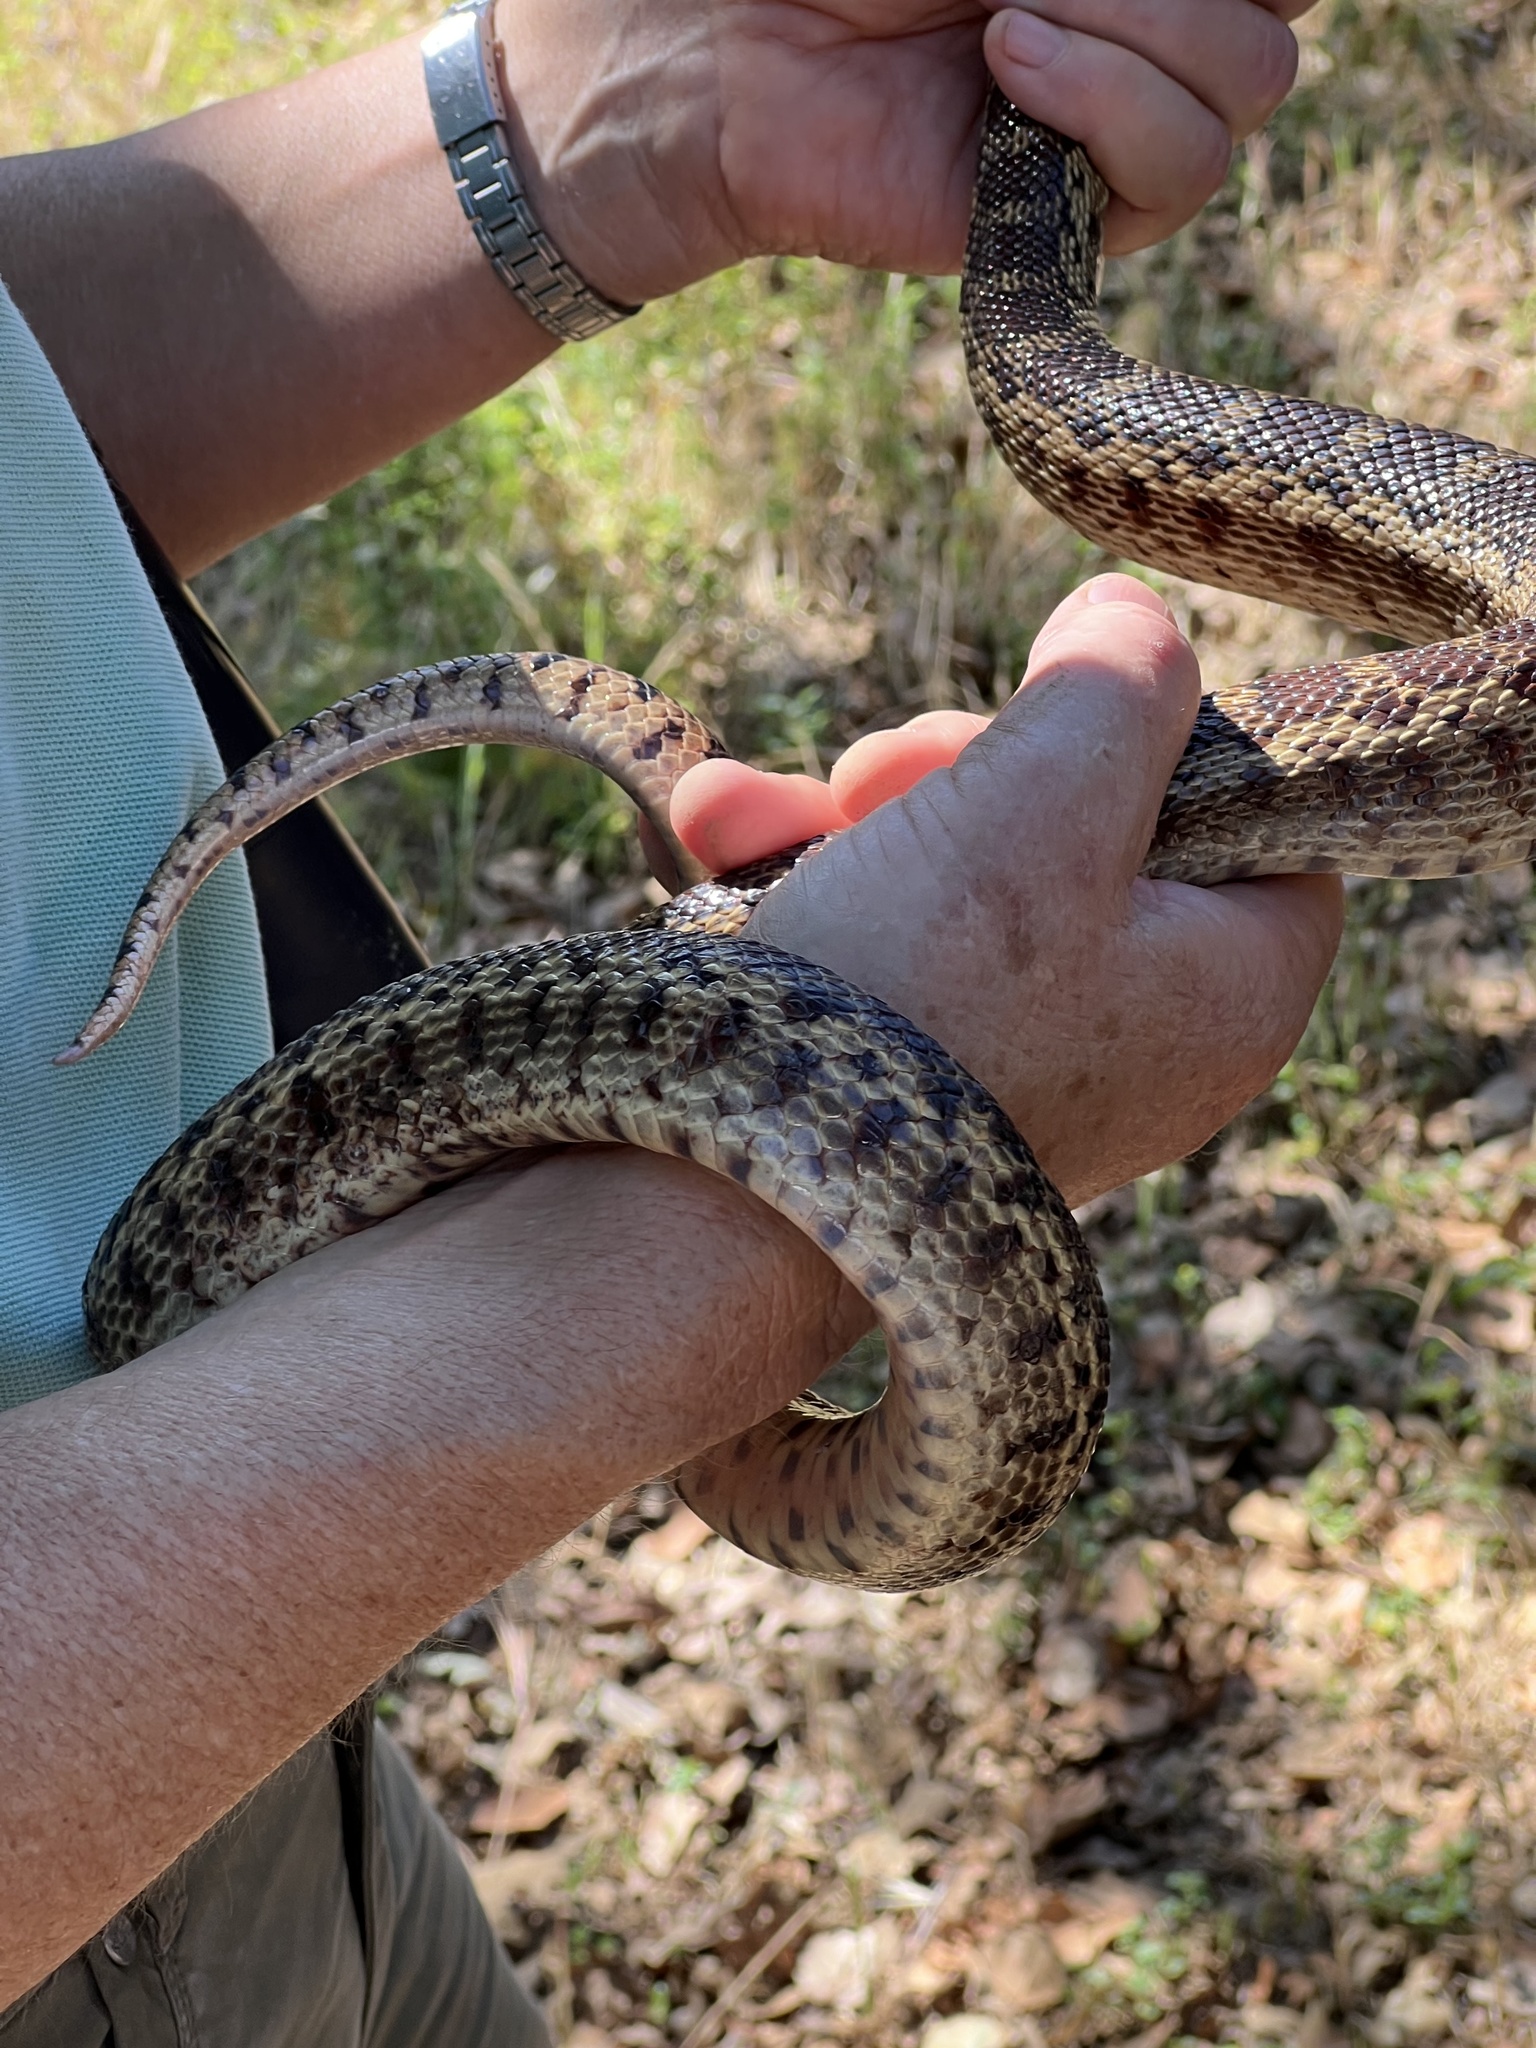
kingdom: Animalia
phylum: Chordata
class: Squamata
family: Colubridae
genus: Pituophis
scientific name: Pituophis catenifer
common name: Gopher snake
